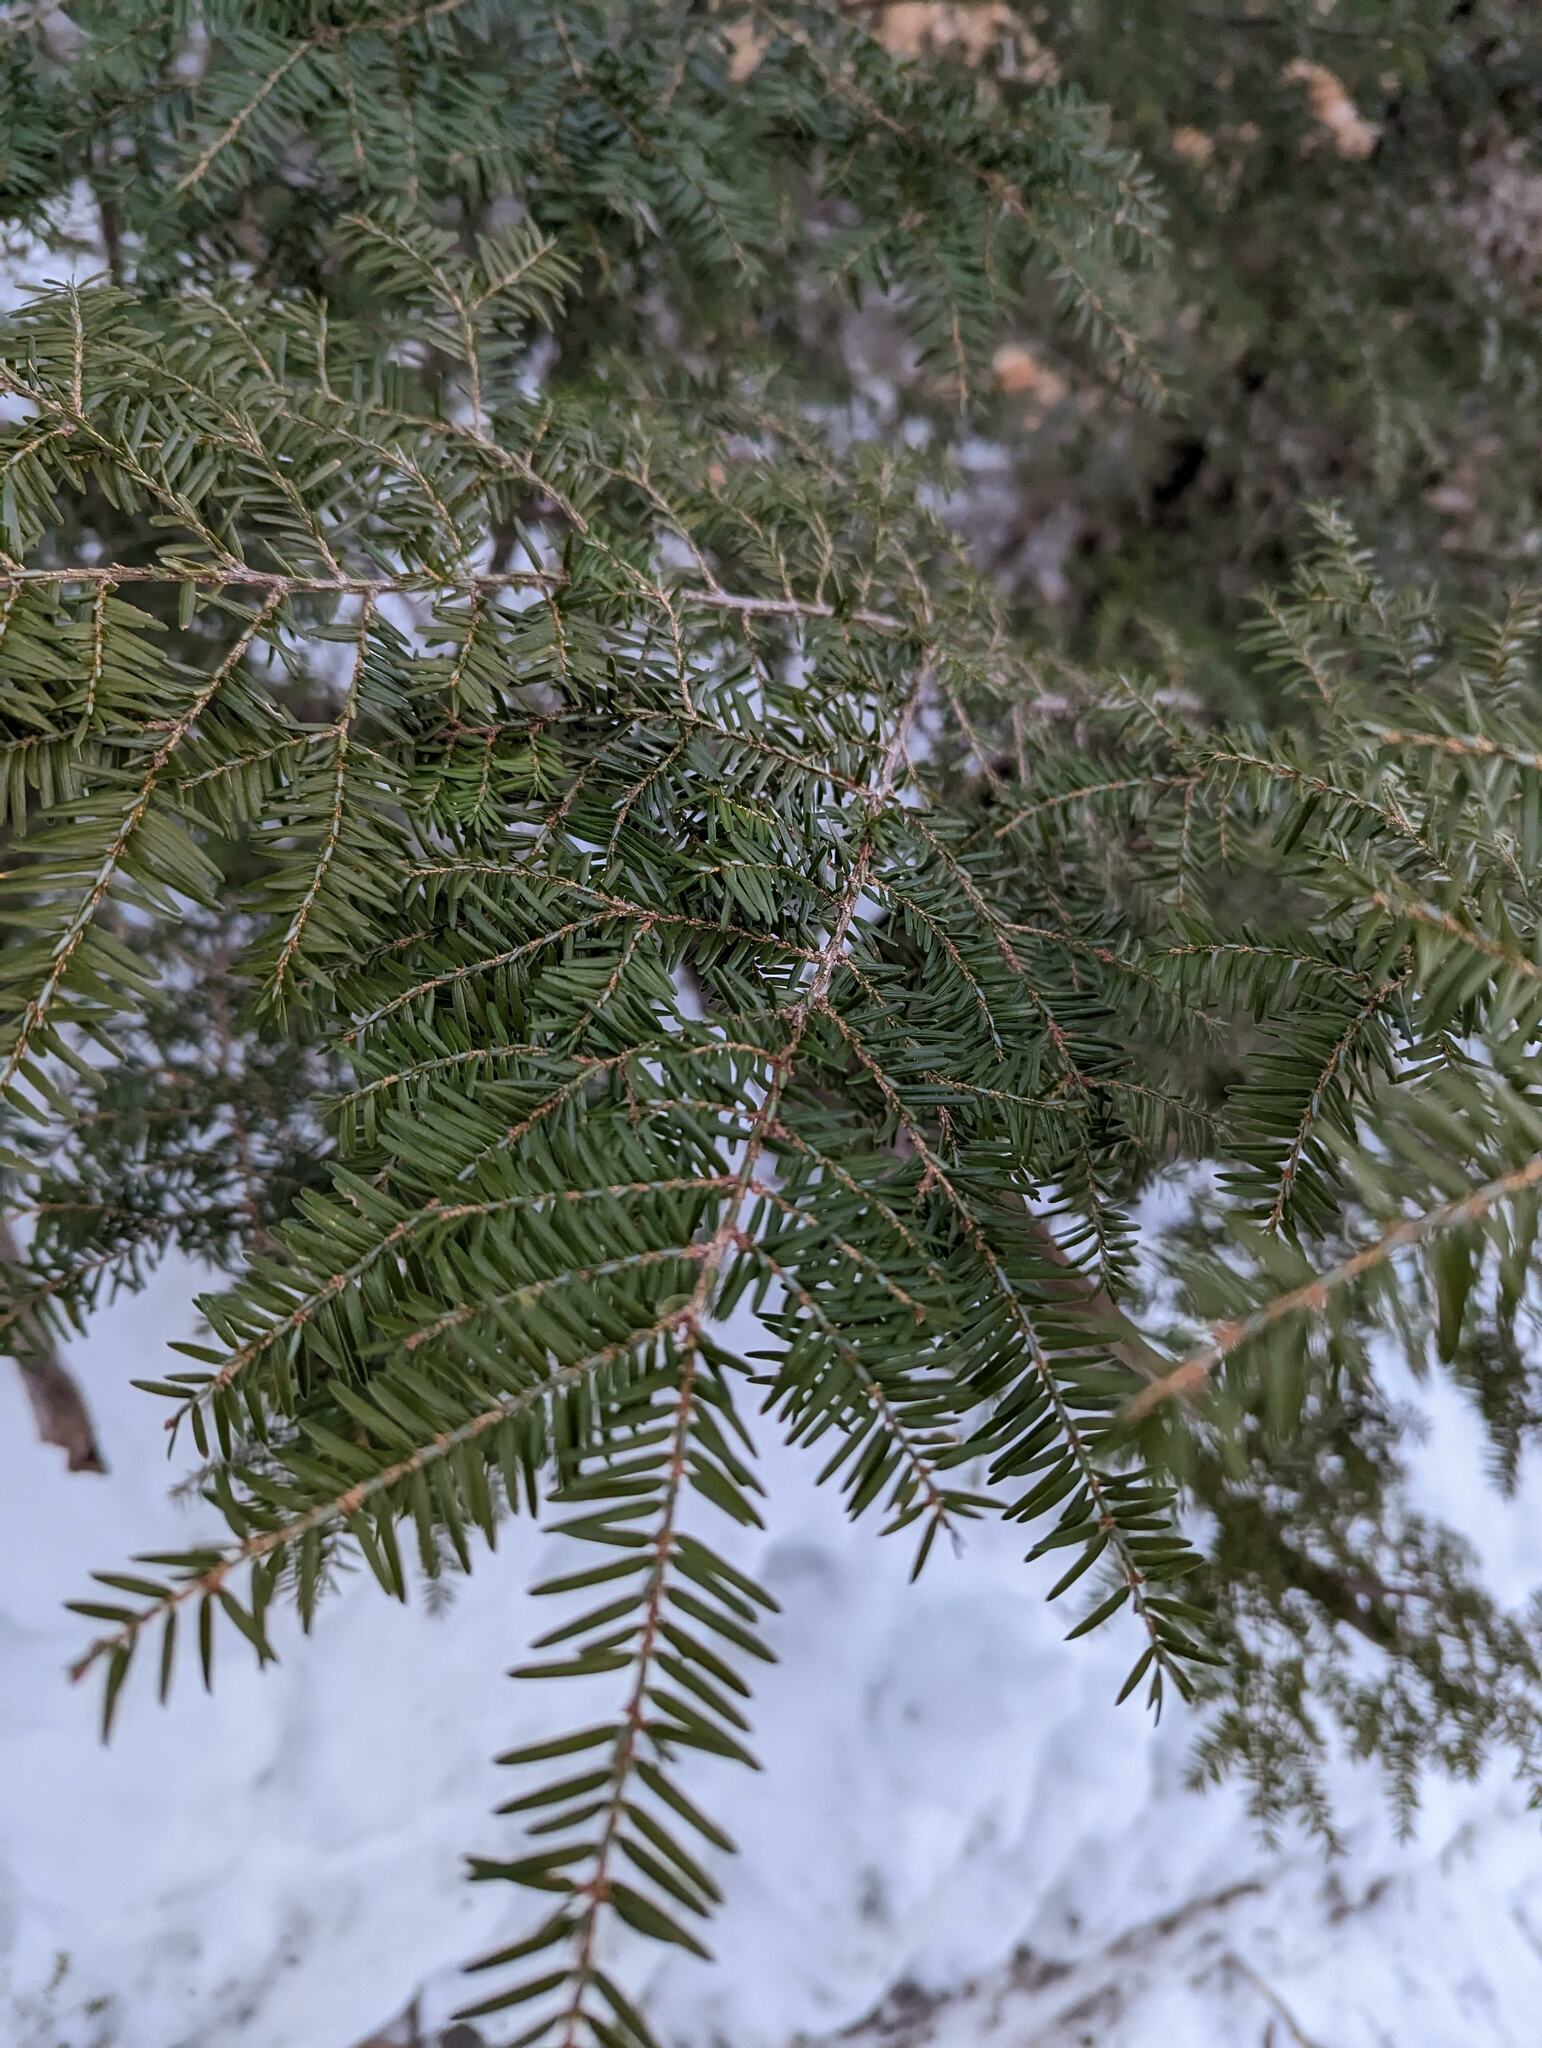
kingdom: Plantae
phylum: Tracheophyta
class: Pinopsida
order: Pinales
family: Pinaceae
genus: Tsuga
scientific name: Tsuga canadensis
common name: Eastern hemlock
